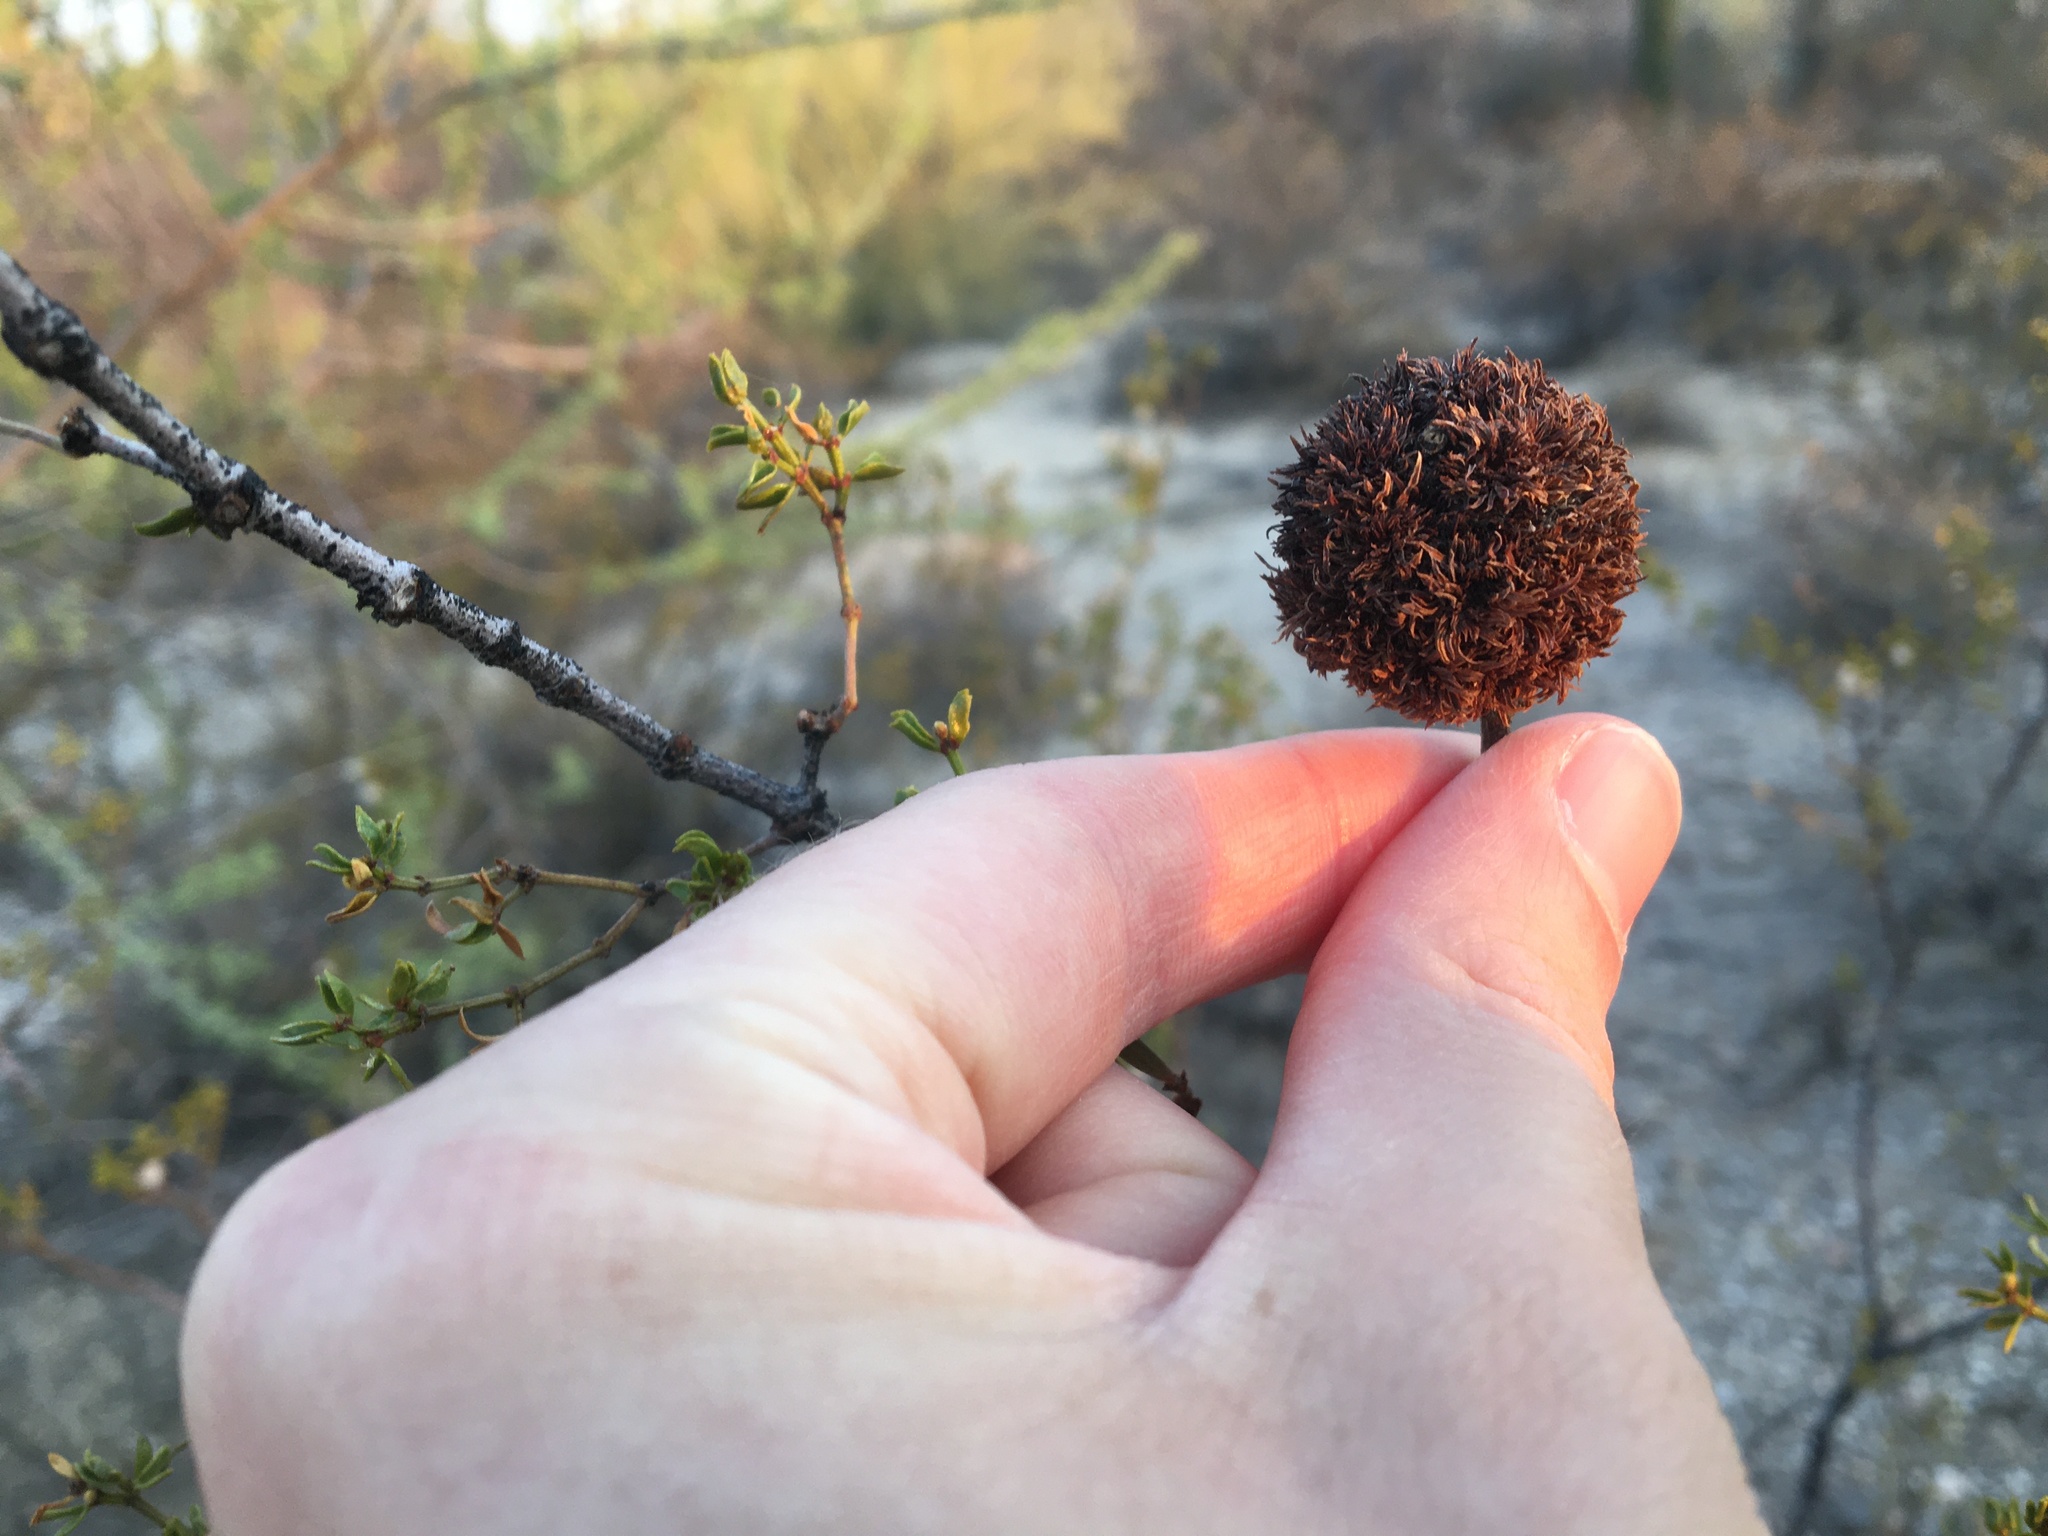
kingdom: Animalia
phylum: Arthropoda
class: Insecta
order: Diptera
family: Cecidomyiidae
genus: Asphondylia
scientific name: Asphondylia auripila
